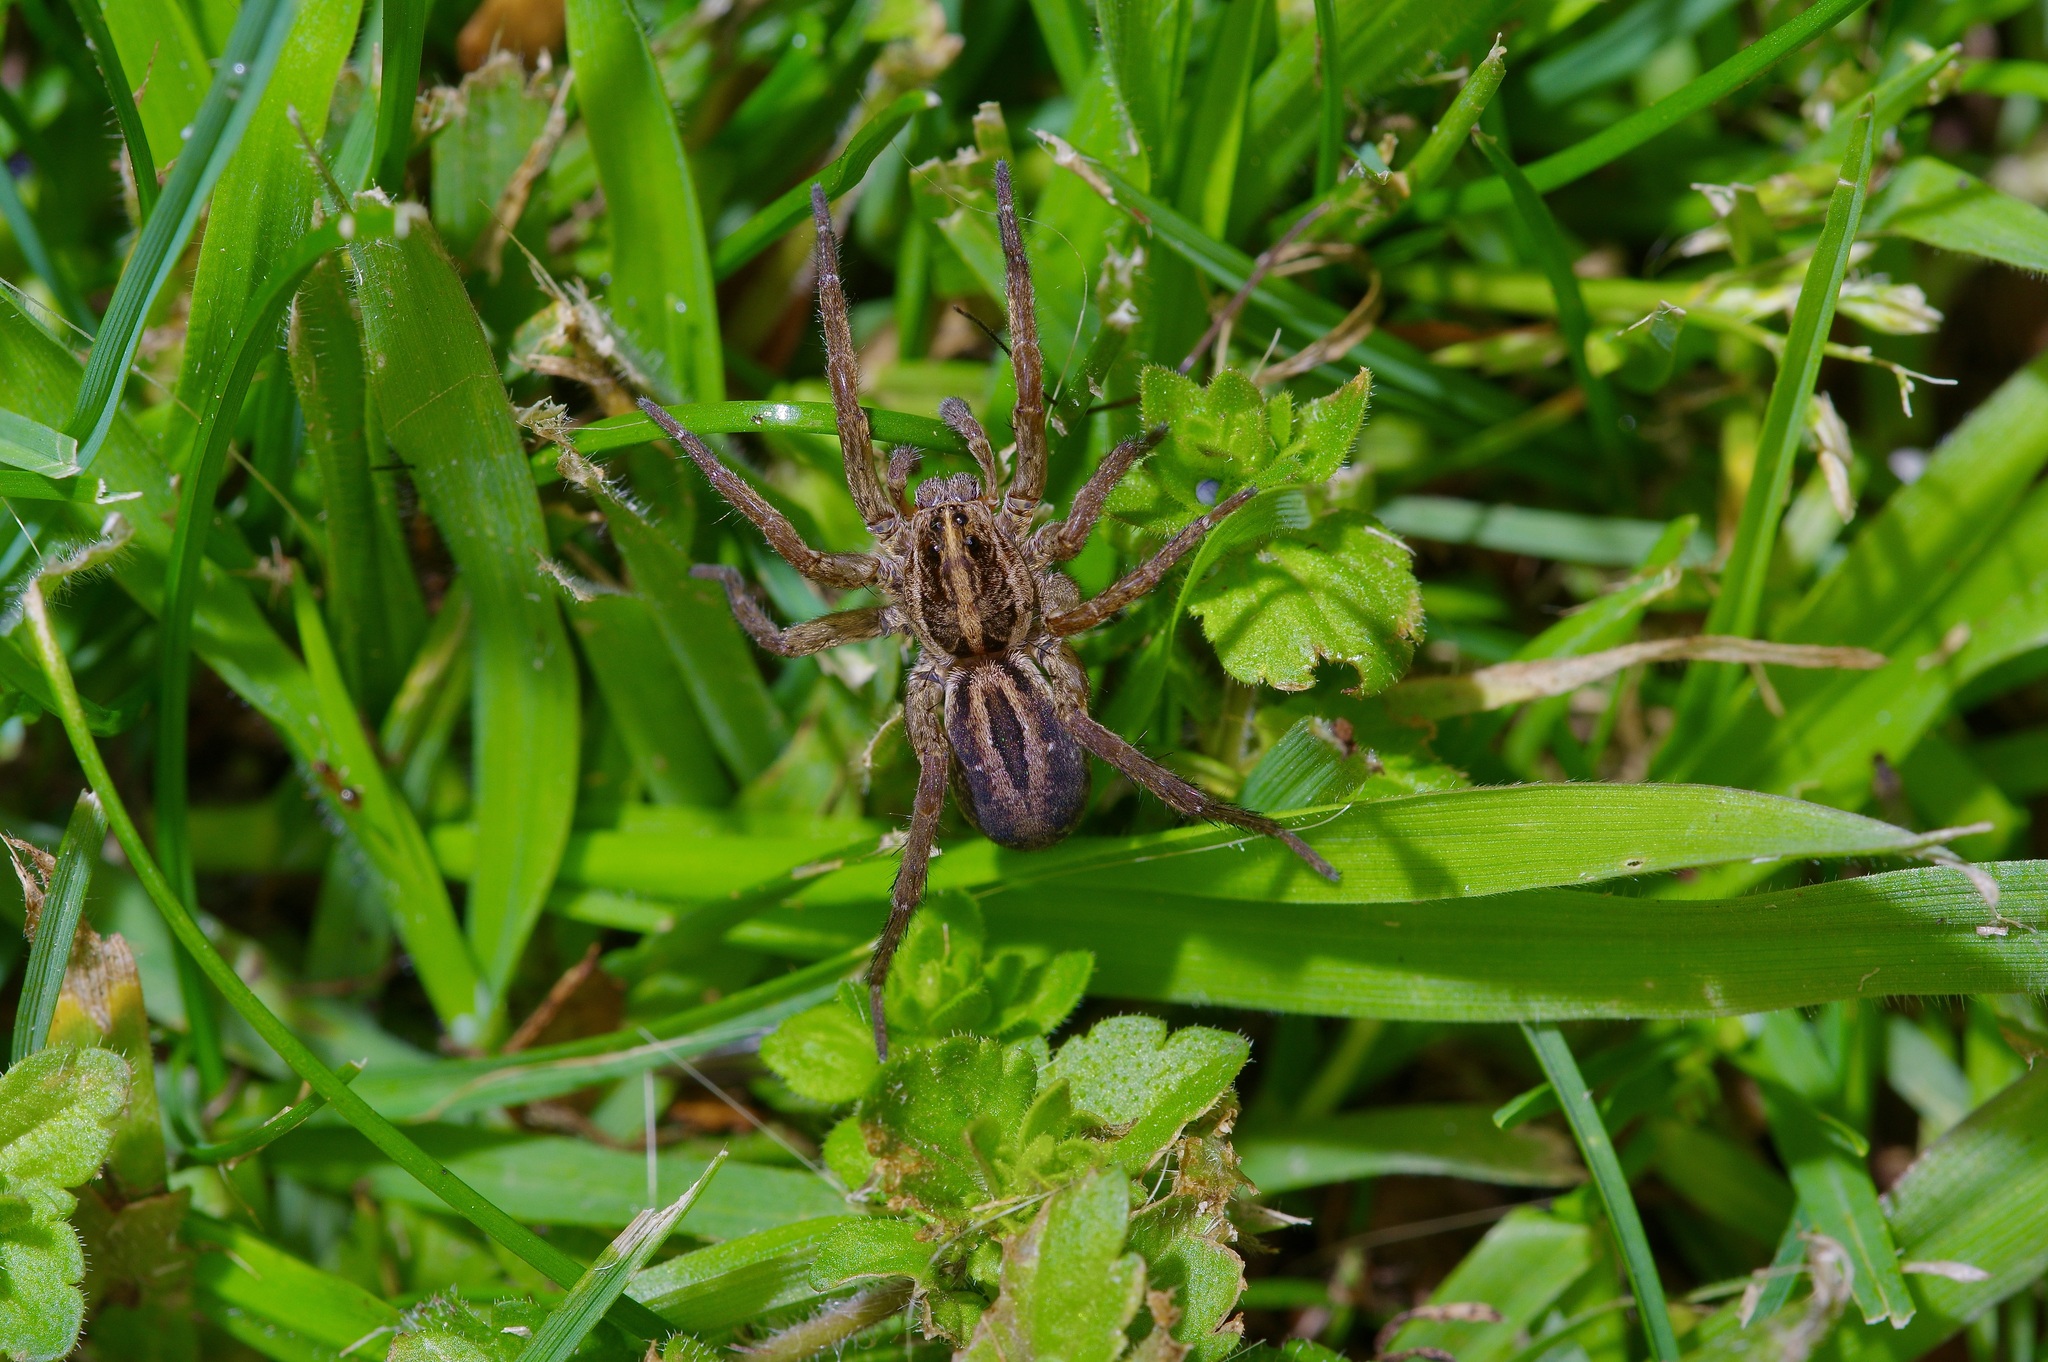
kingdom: Animalia
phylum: Arthropoda
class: Arachnida
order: Araneae
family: Lycosidae
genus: Tigrosa
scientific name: Tigrosa annexa
